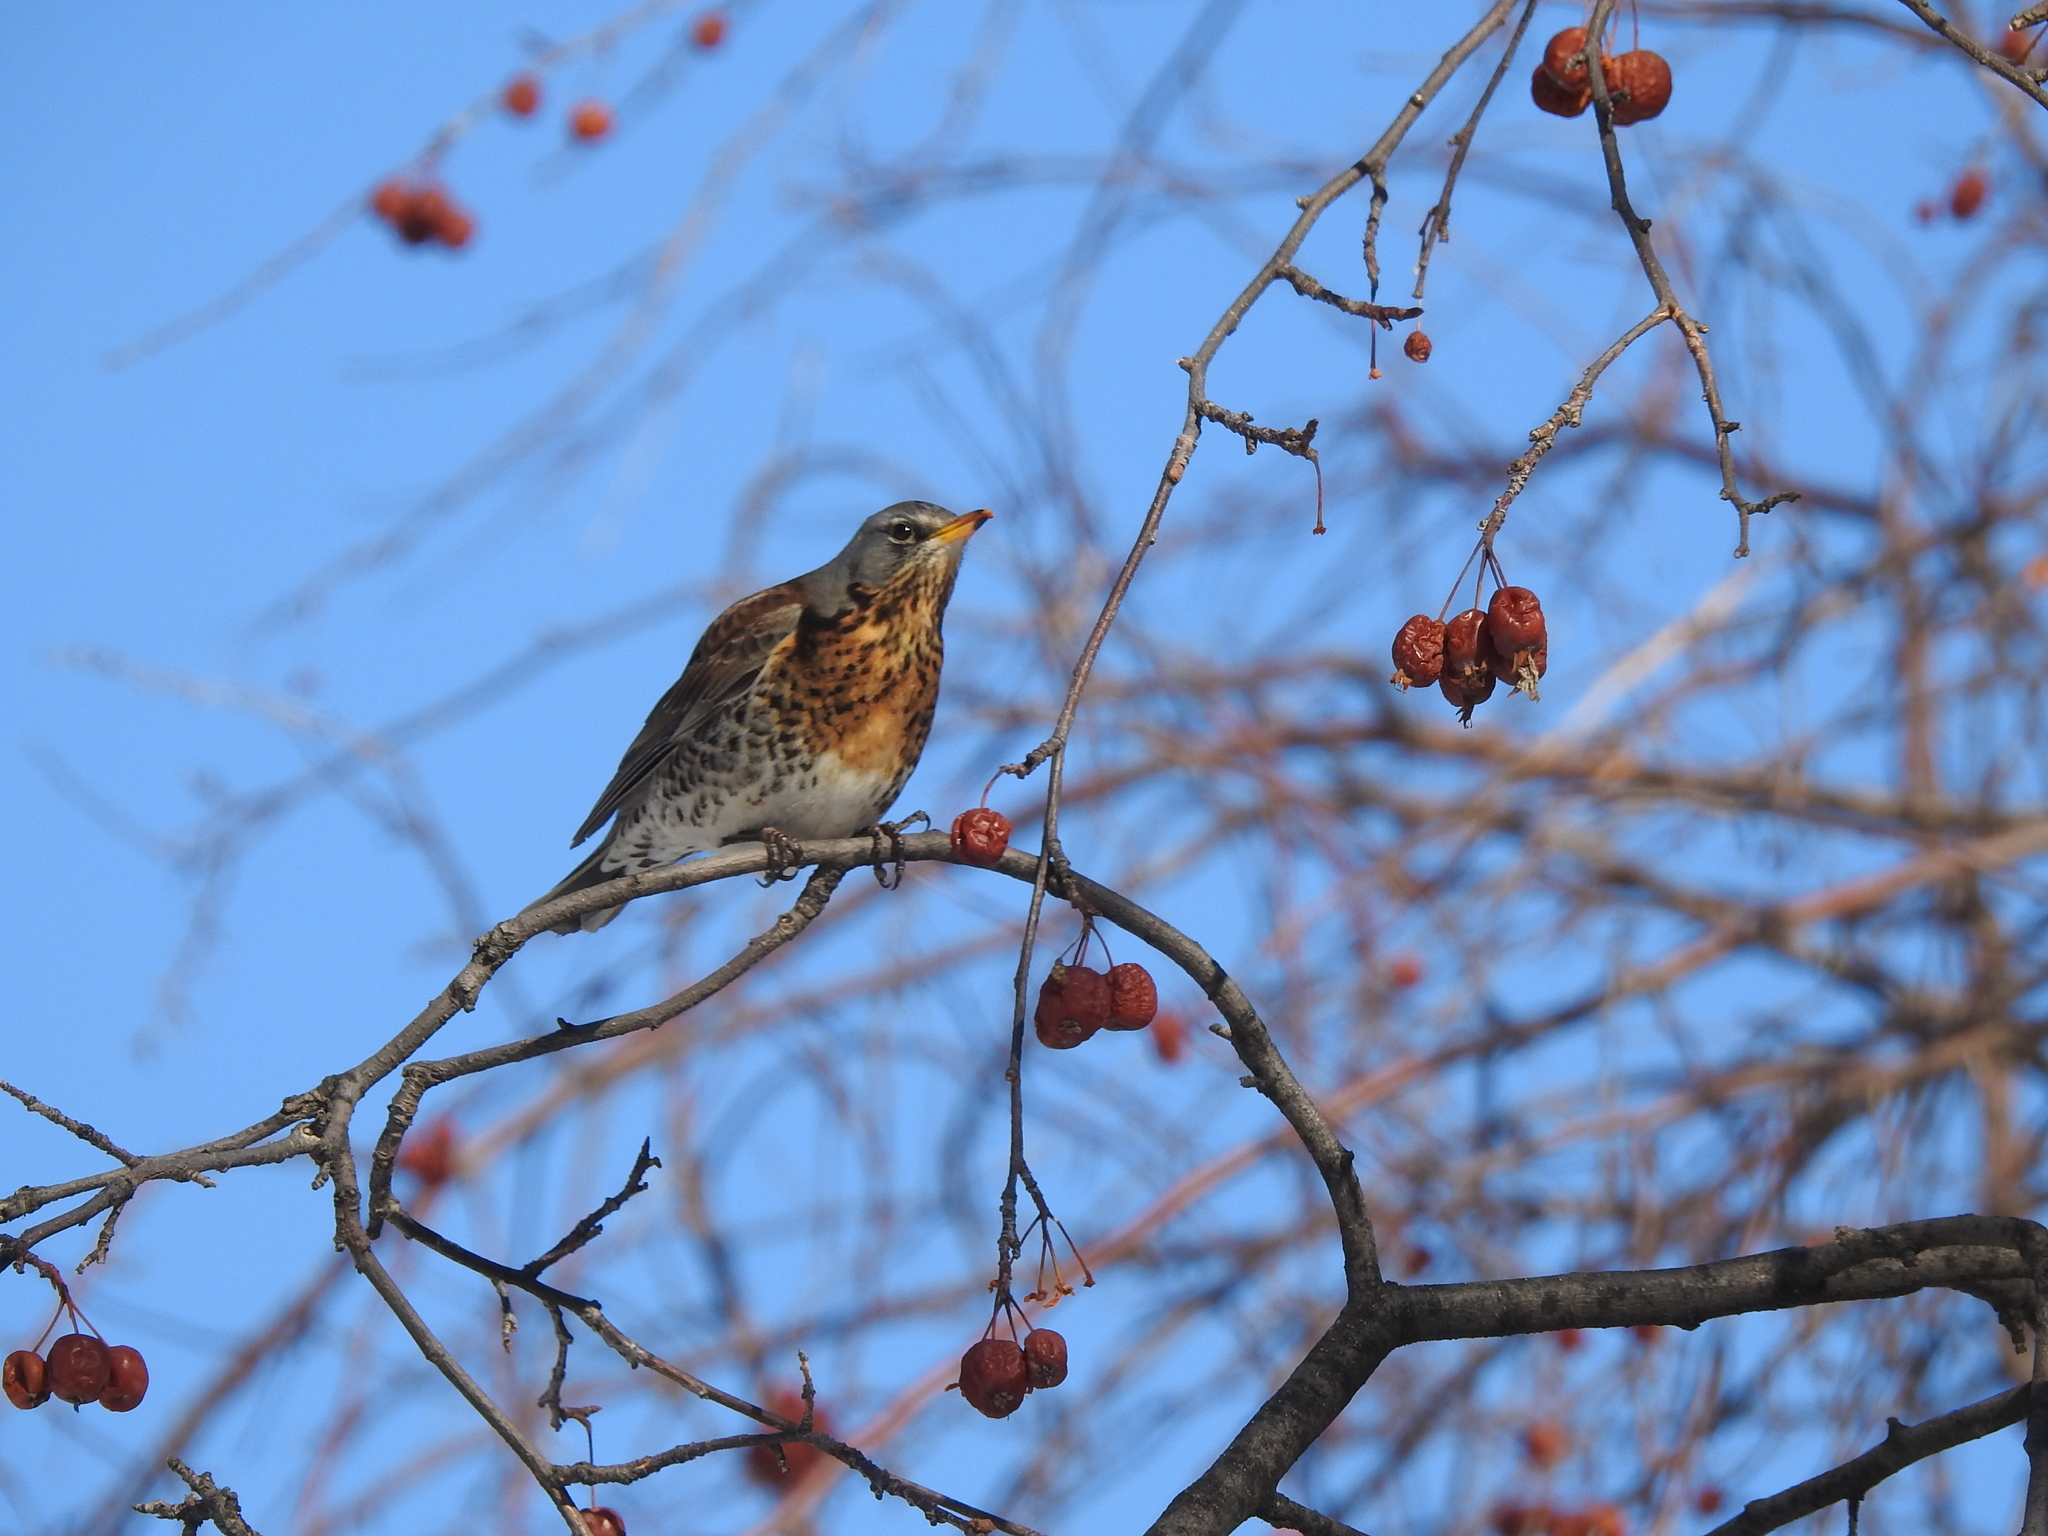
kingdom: Animalia
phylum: Chordata
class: Aves
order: Passeriformes
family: Turdidae
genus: Turdus
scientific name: Turdus pilaris
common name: Fieldfare
